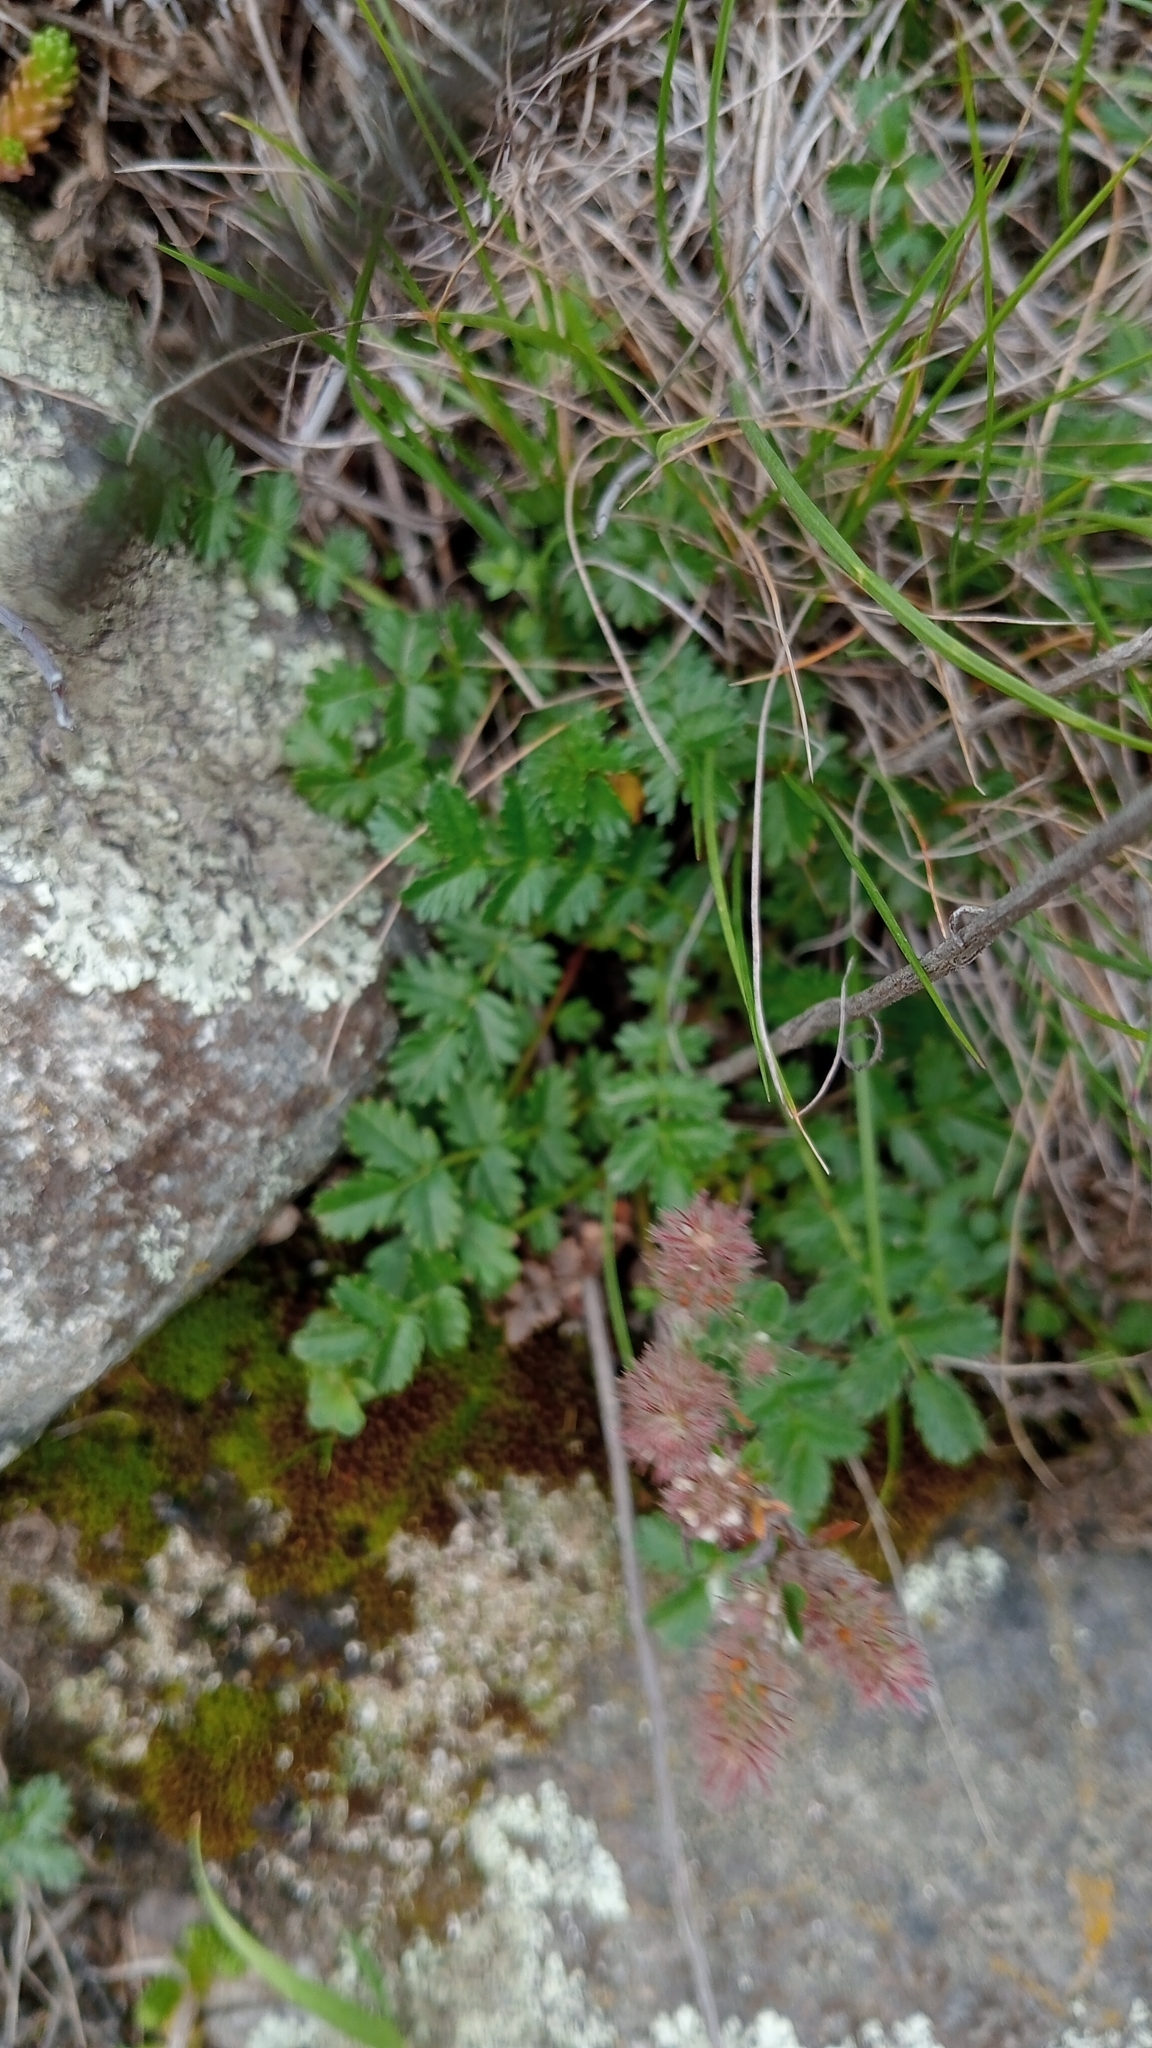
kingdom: Plantae
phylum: Tracheophyta
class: Magnoliopsida
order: Rosales
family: Rosaceae
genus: Acaena
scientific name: Acaena agnipila
